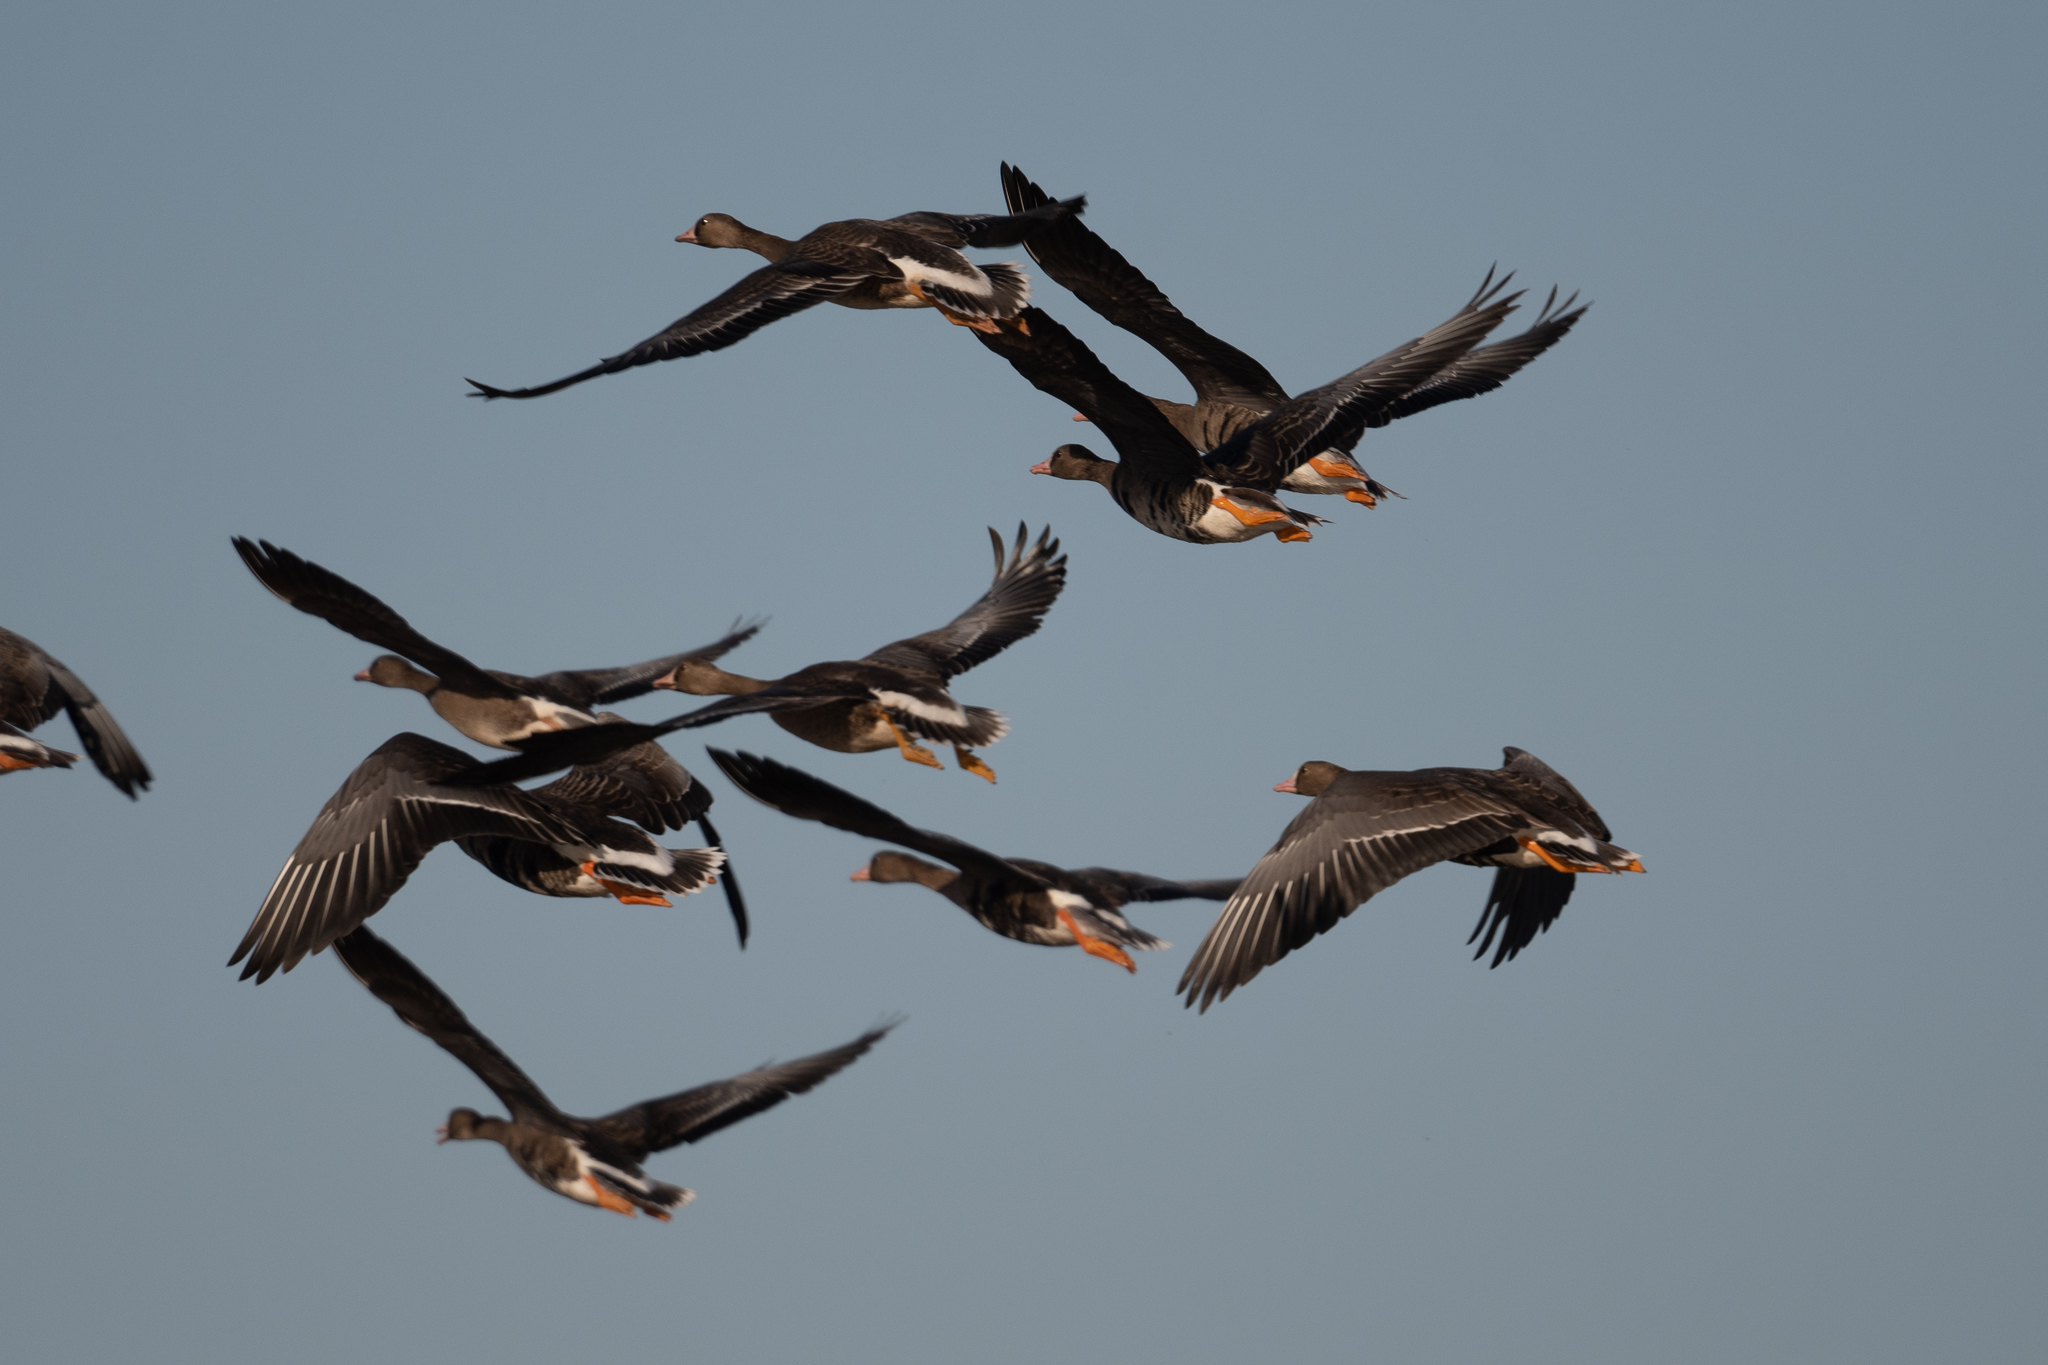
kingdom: Animalia
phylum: Chordata
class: Aves
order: Anseriformes
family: Anatidae
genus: Anser
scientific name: Anser albifrons
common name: Greater white-fronted goose
